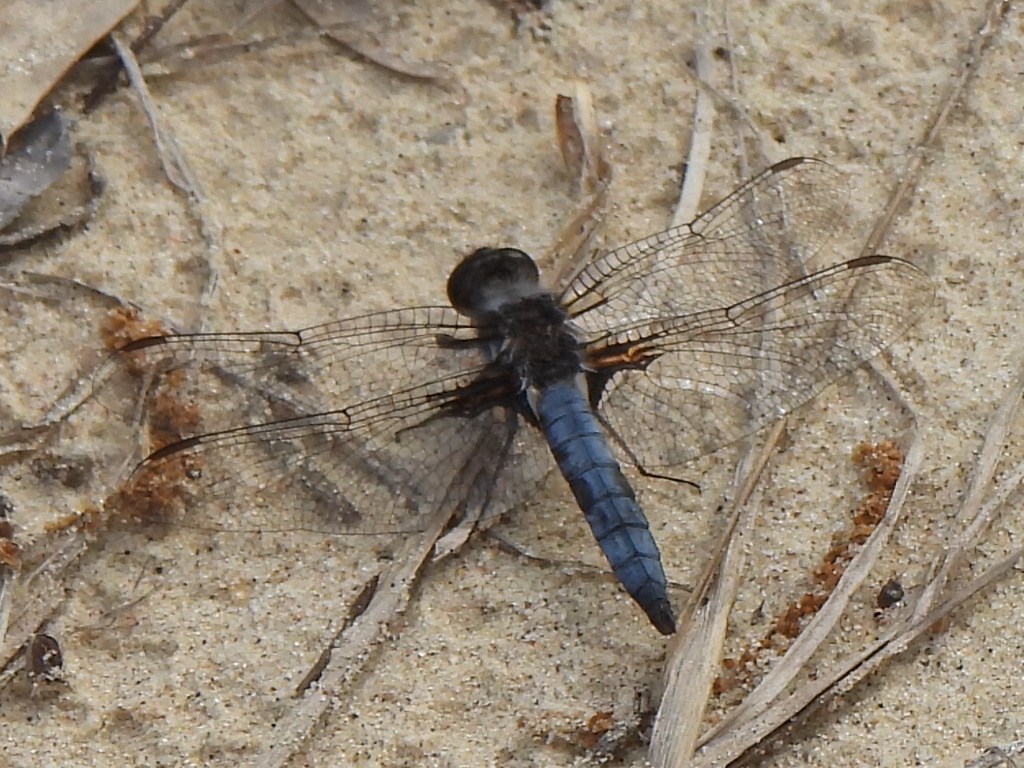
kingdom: Animalia
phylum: Arthropoda
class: Insecta
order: Odonata
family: Libellulidae
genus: Ladona
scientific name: Ladona deplanata
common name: Blue corporal
